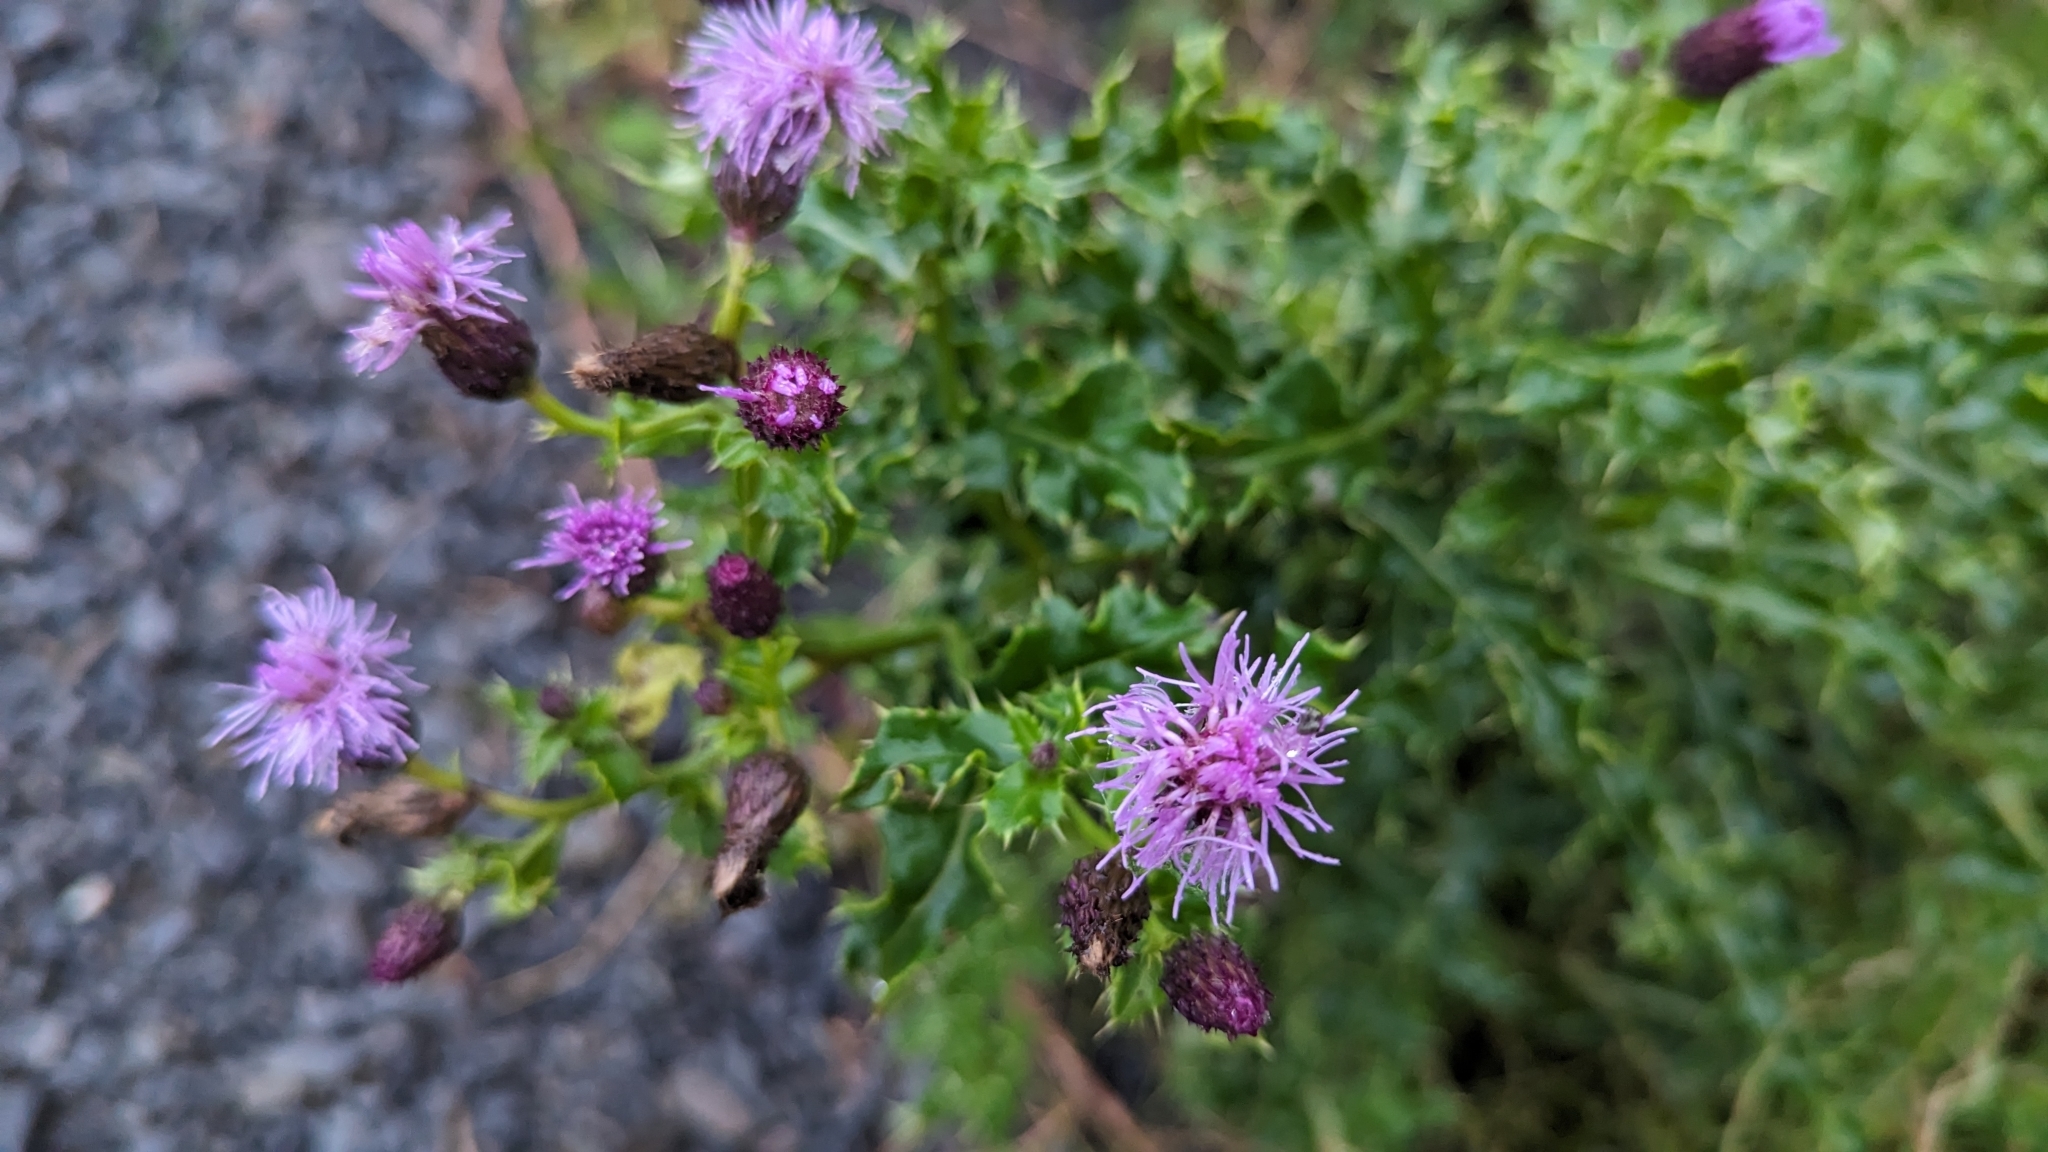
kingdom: Plantae
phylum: Tracheophyta
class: Magnoliopsida
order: Asterales
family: Asteraceae
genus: Cirsium
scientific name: Cirsium arvense
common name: Creeping thistle
